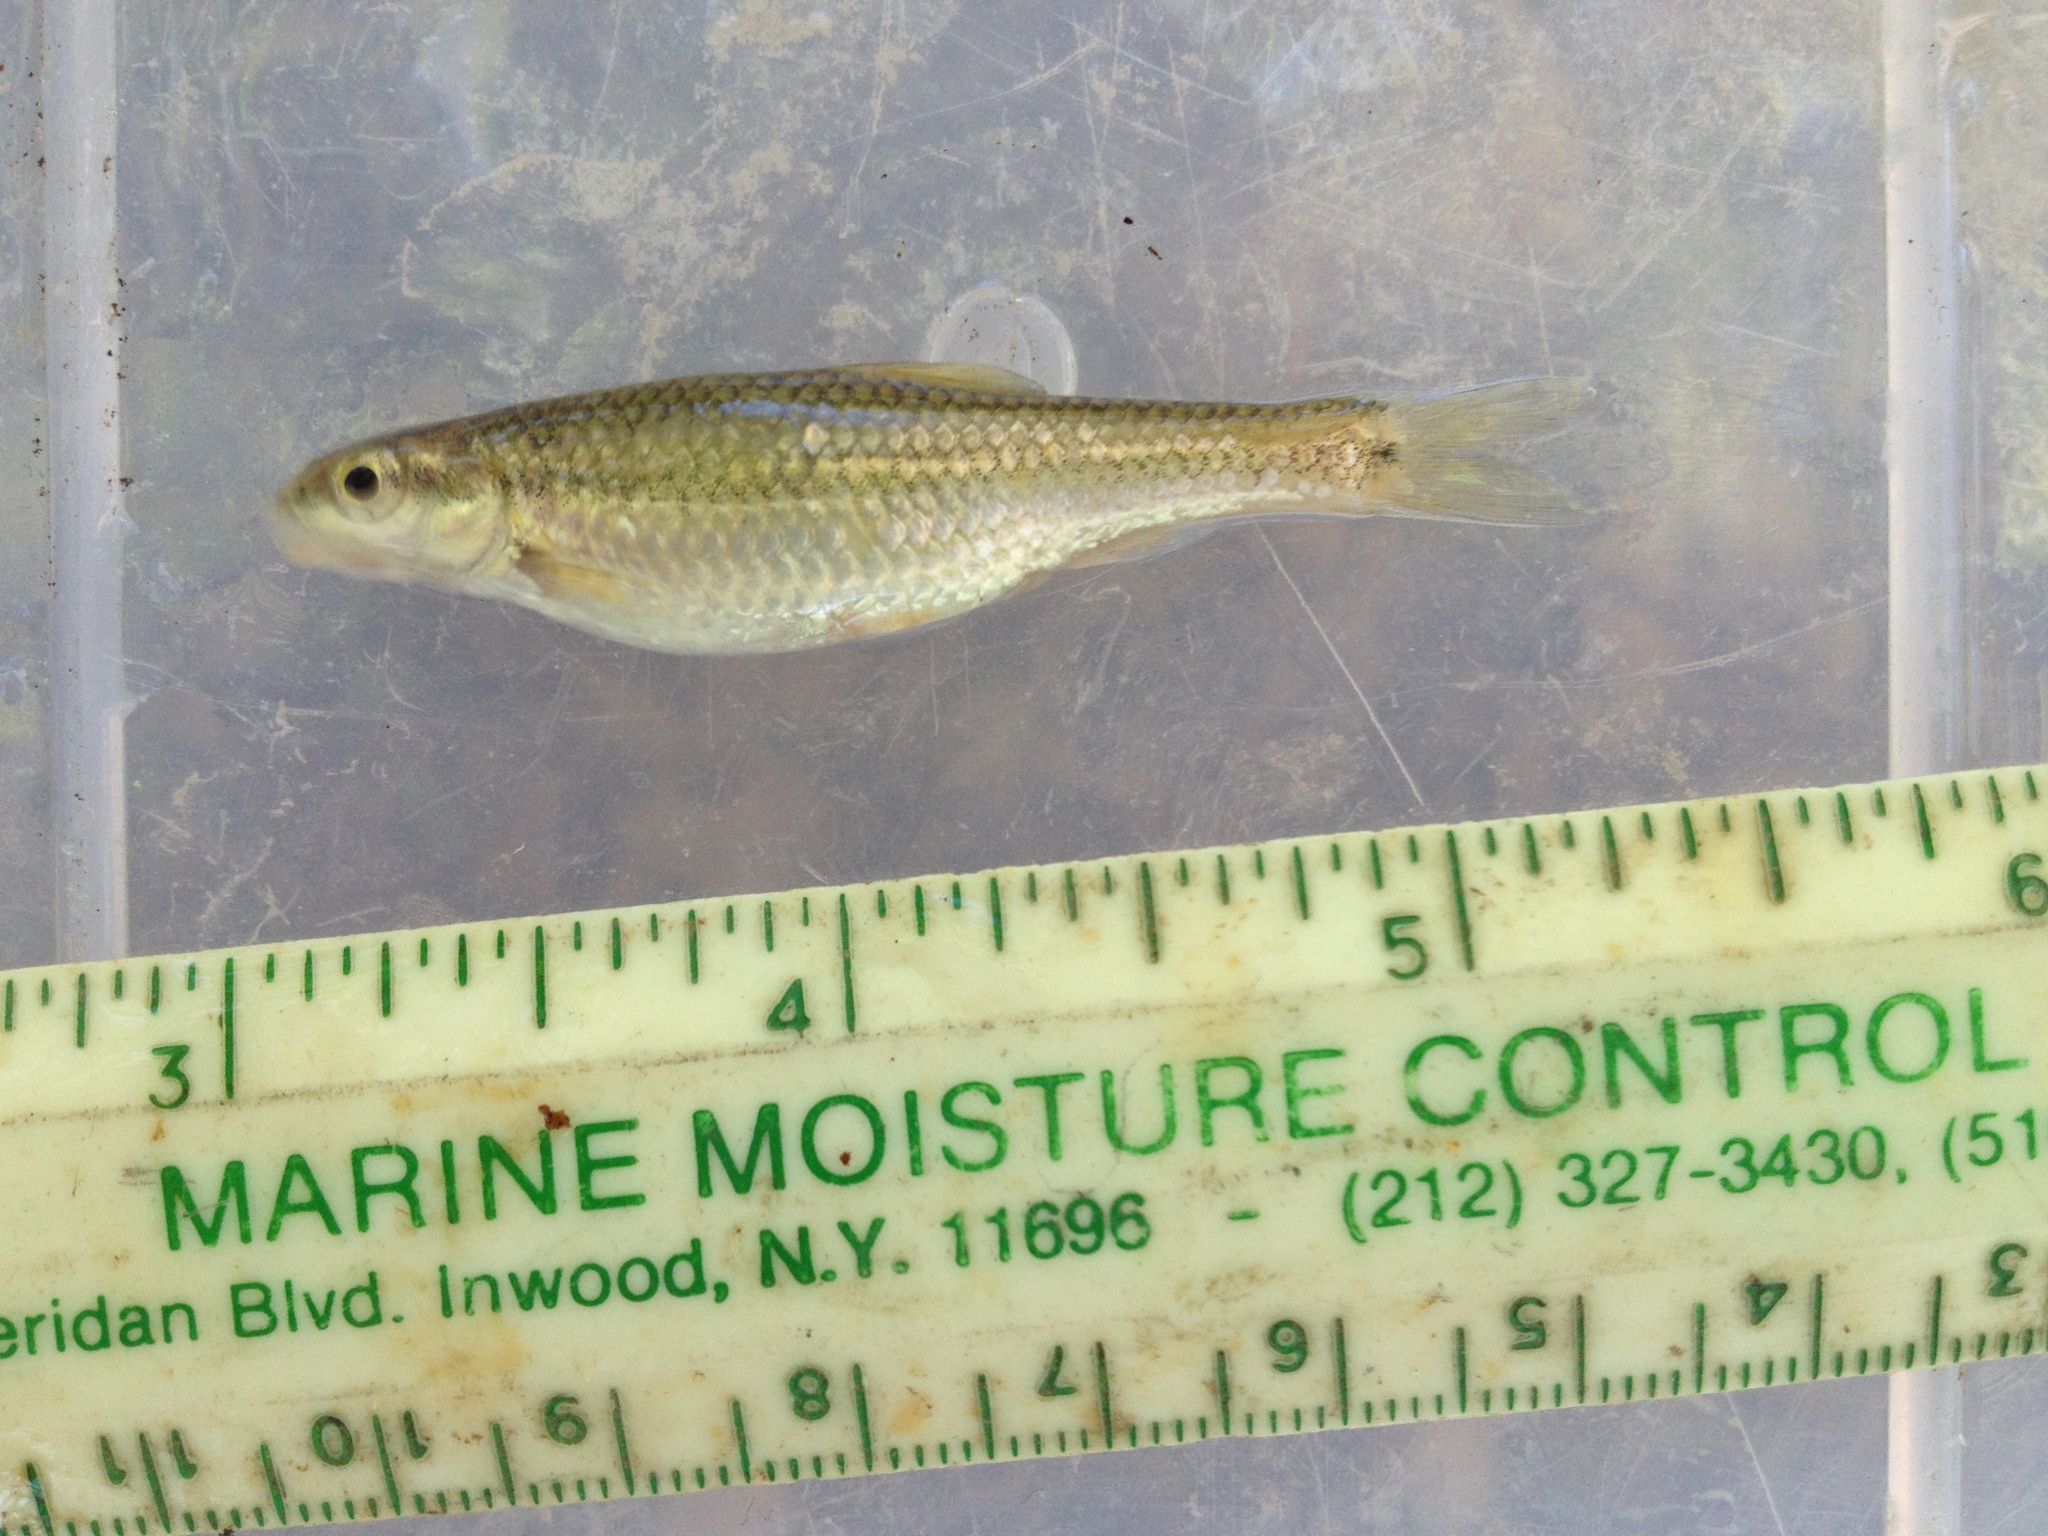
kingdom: Animalia
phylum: Chordata
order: Cypriniformes
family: Cyprinidae
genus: Dionda
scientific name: Dionda serena
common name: Nueces roundnose minnow
